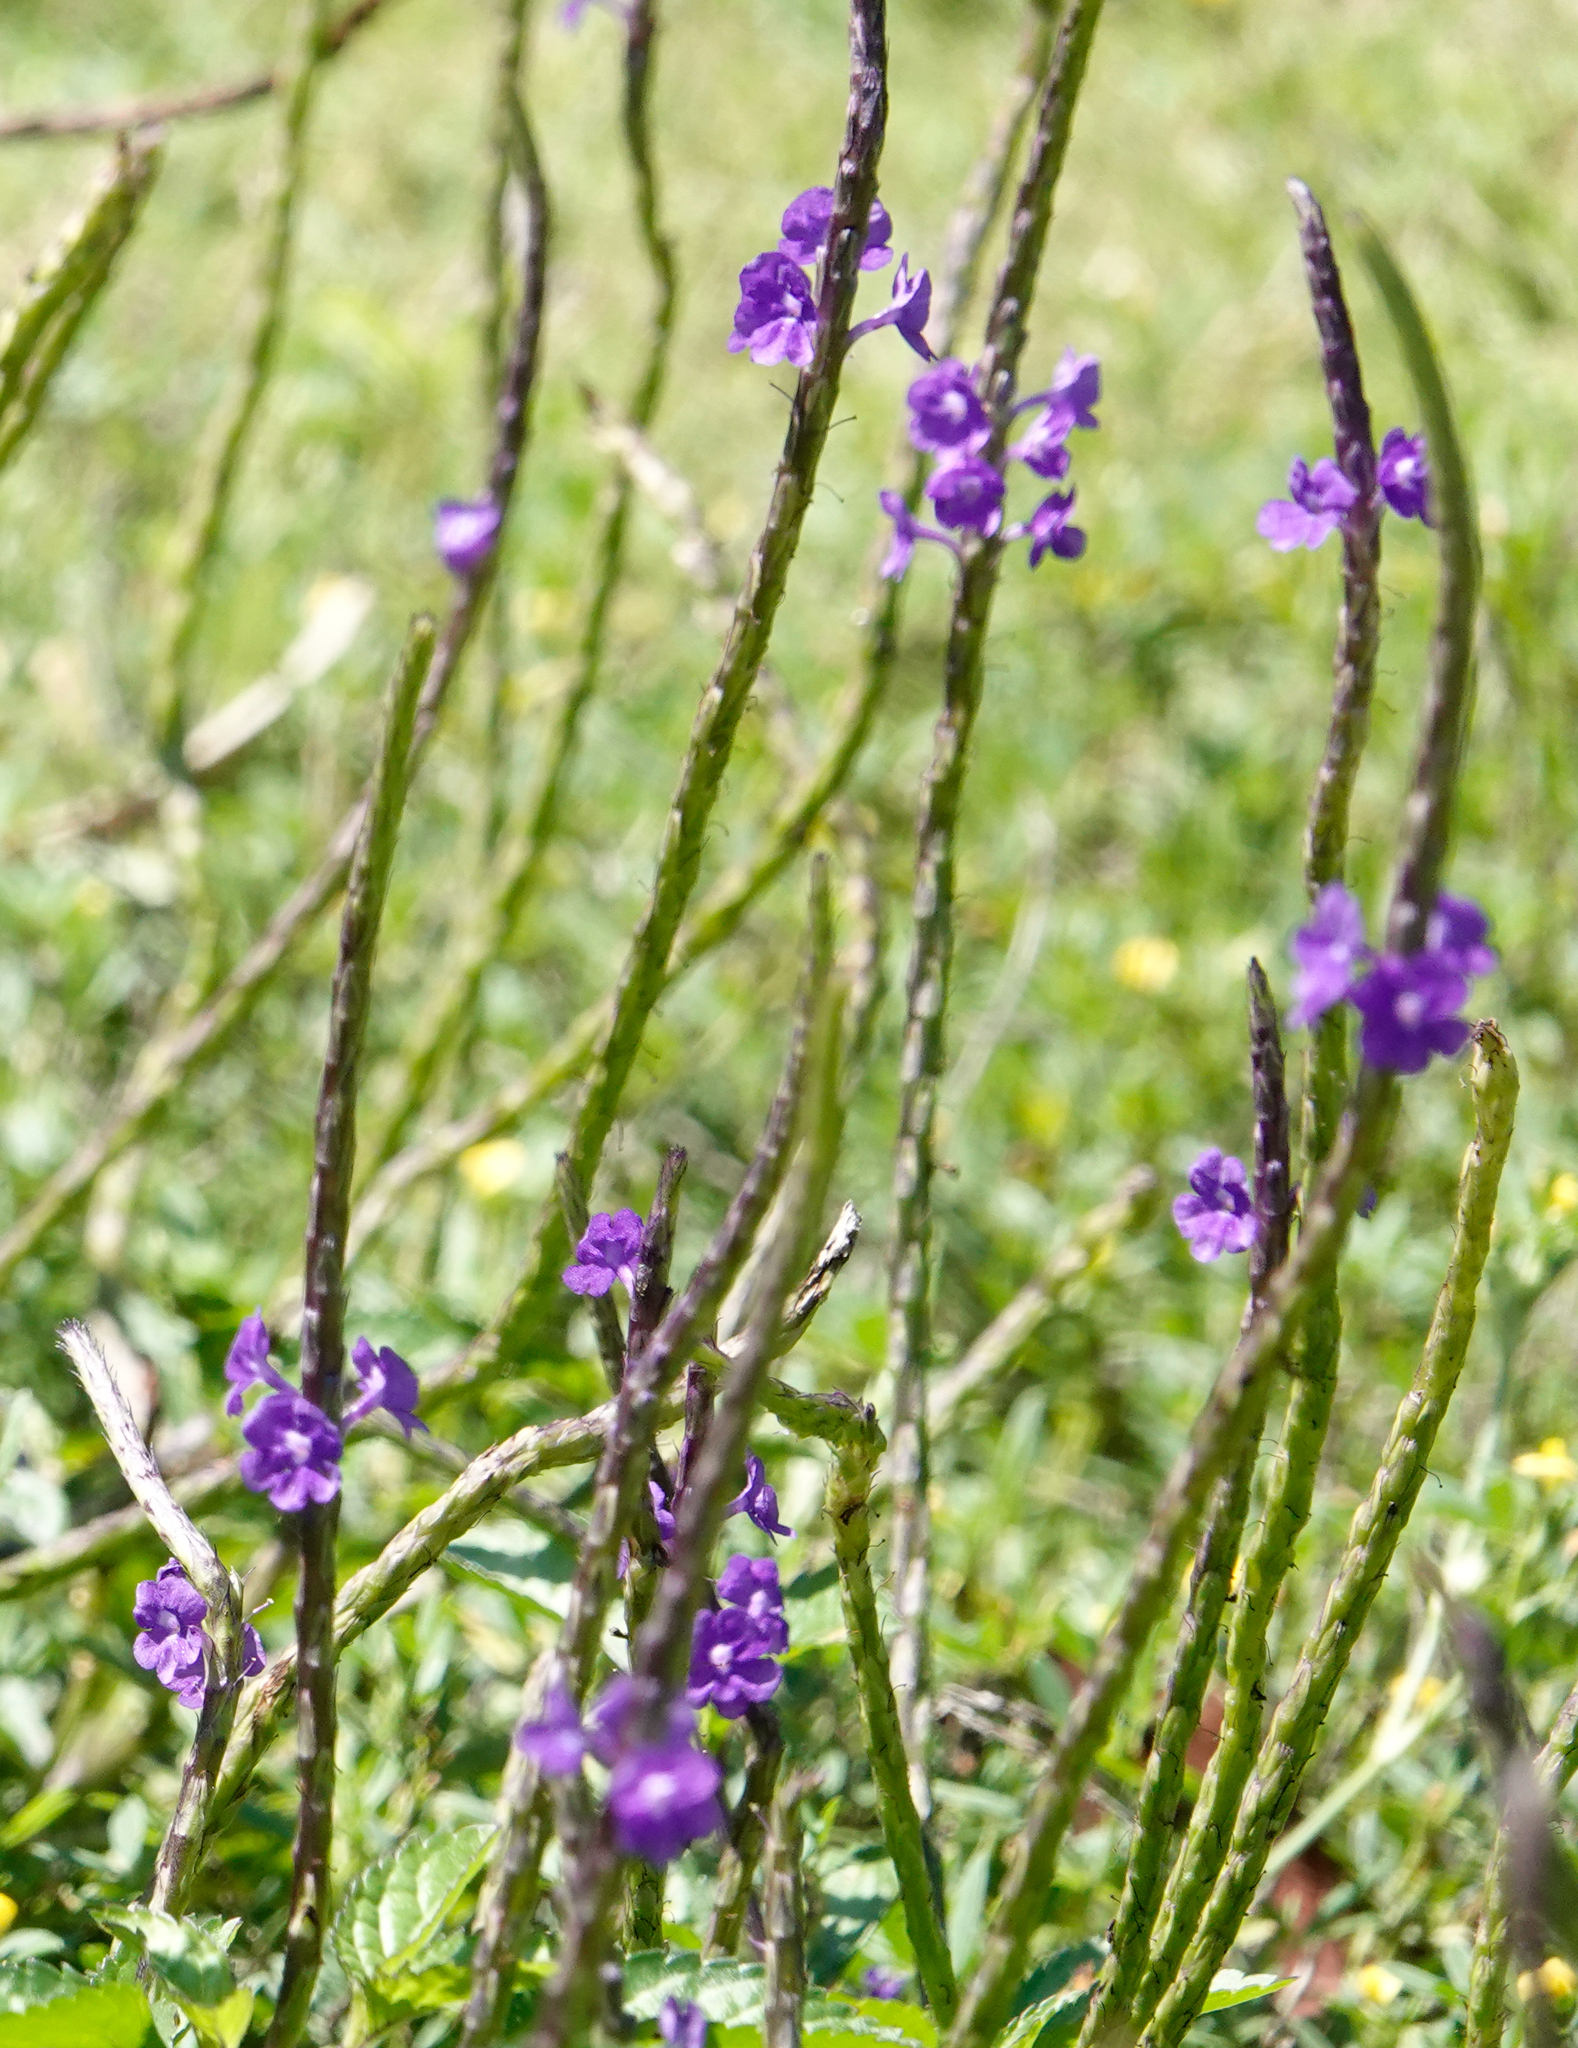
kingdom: Plantae
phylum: Tracheophyta
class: Magnoliopsida
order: Lamiales
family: Verbenaceae
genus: Stachytarpheta
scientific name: Stachytarpheta jamaicensis
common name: Light-blue snakeweed
